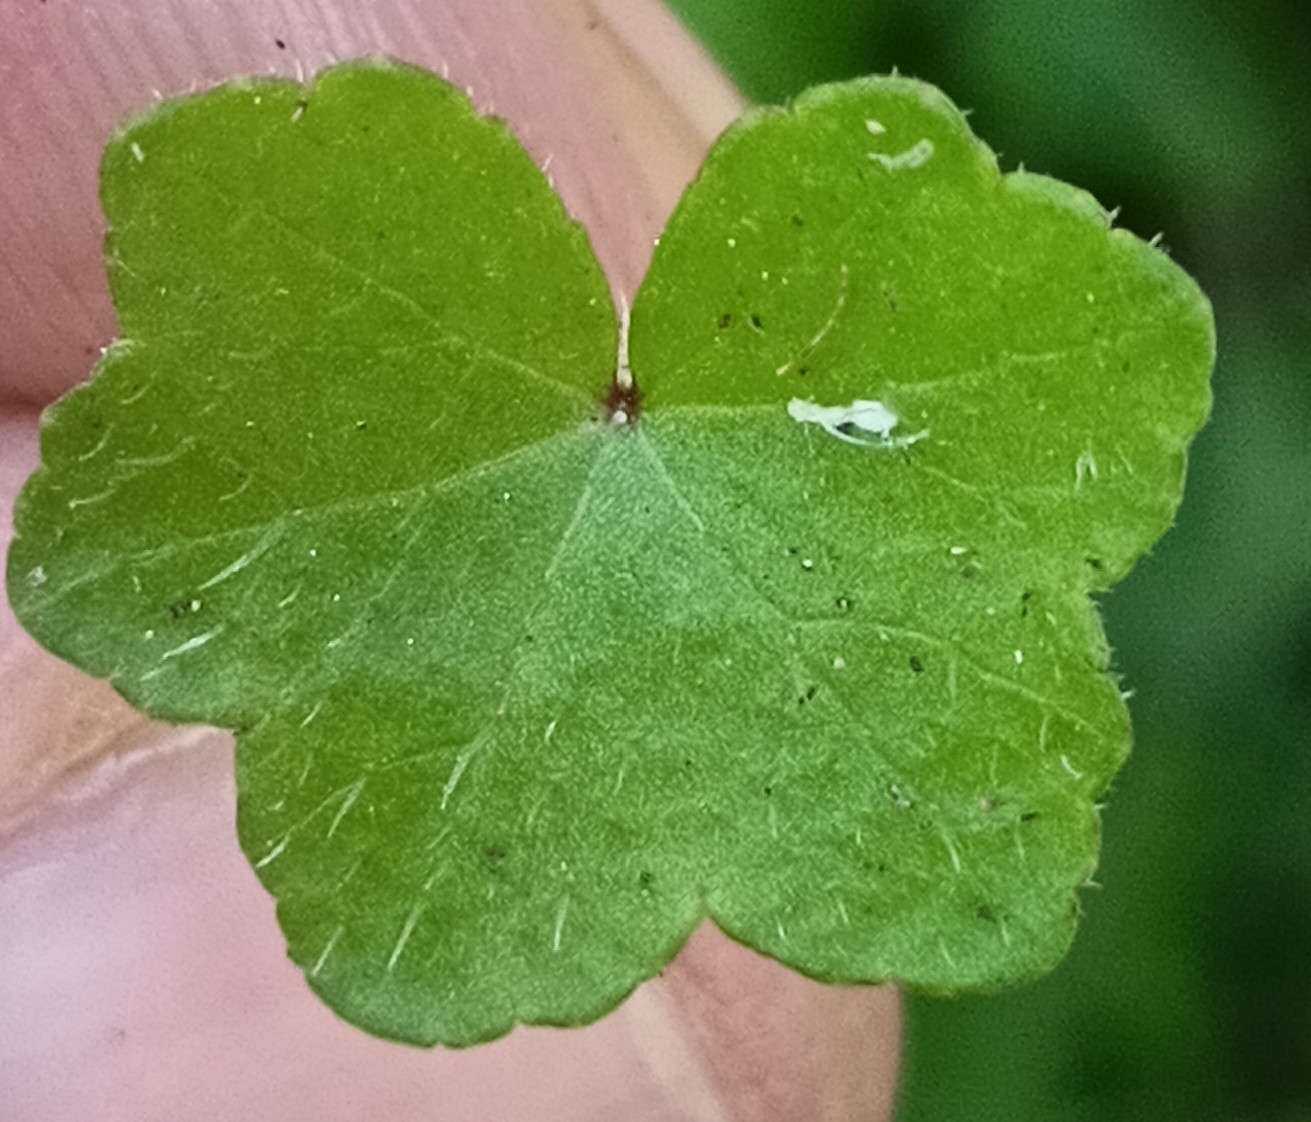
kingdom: Plantae
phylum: Tracheophyta
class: Magnoliopsida
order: Apiales
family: Araliaceae
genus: Hydrocotyle
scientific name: Hydrocotyle acutiloba
